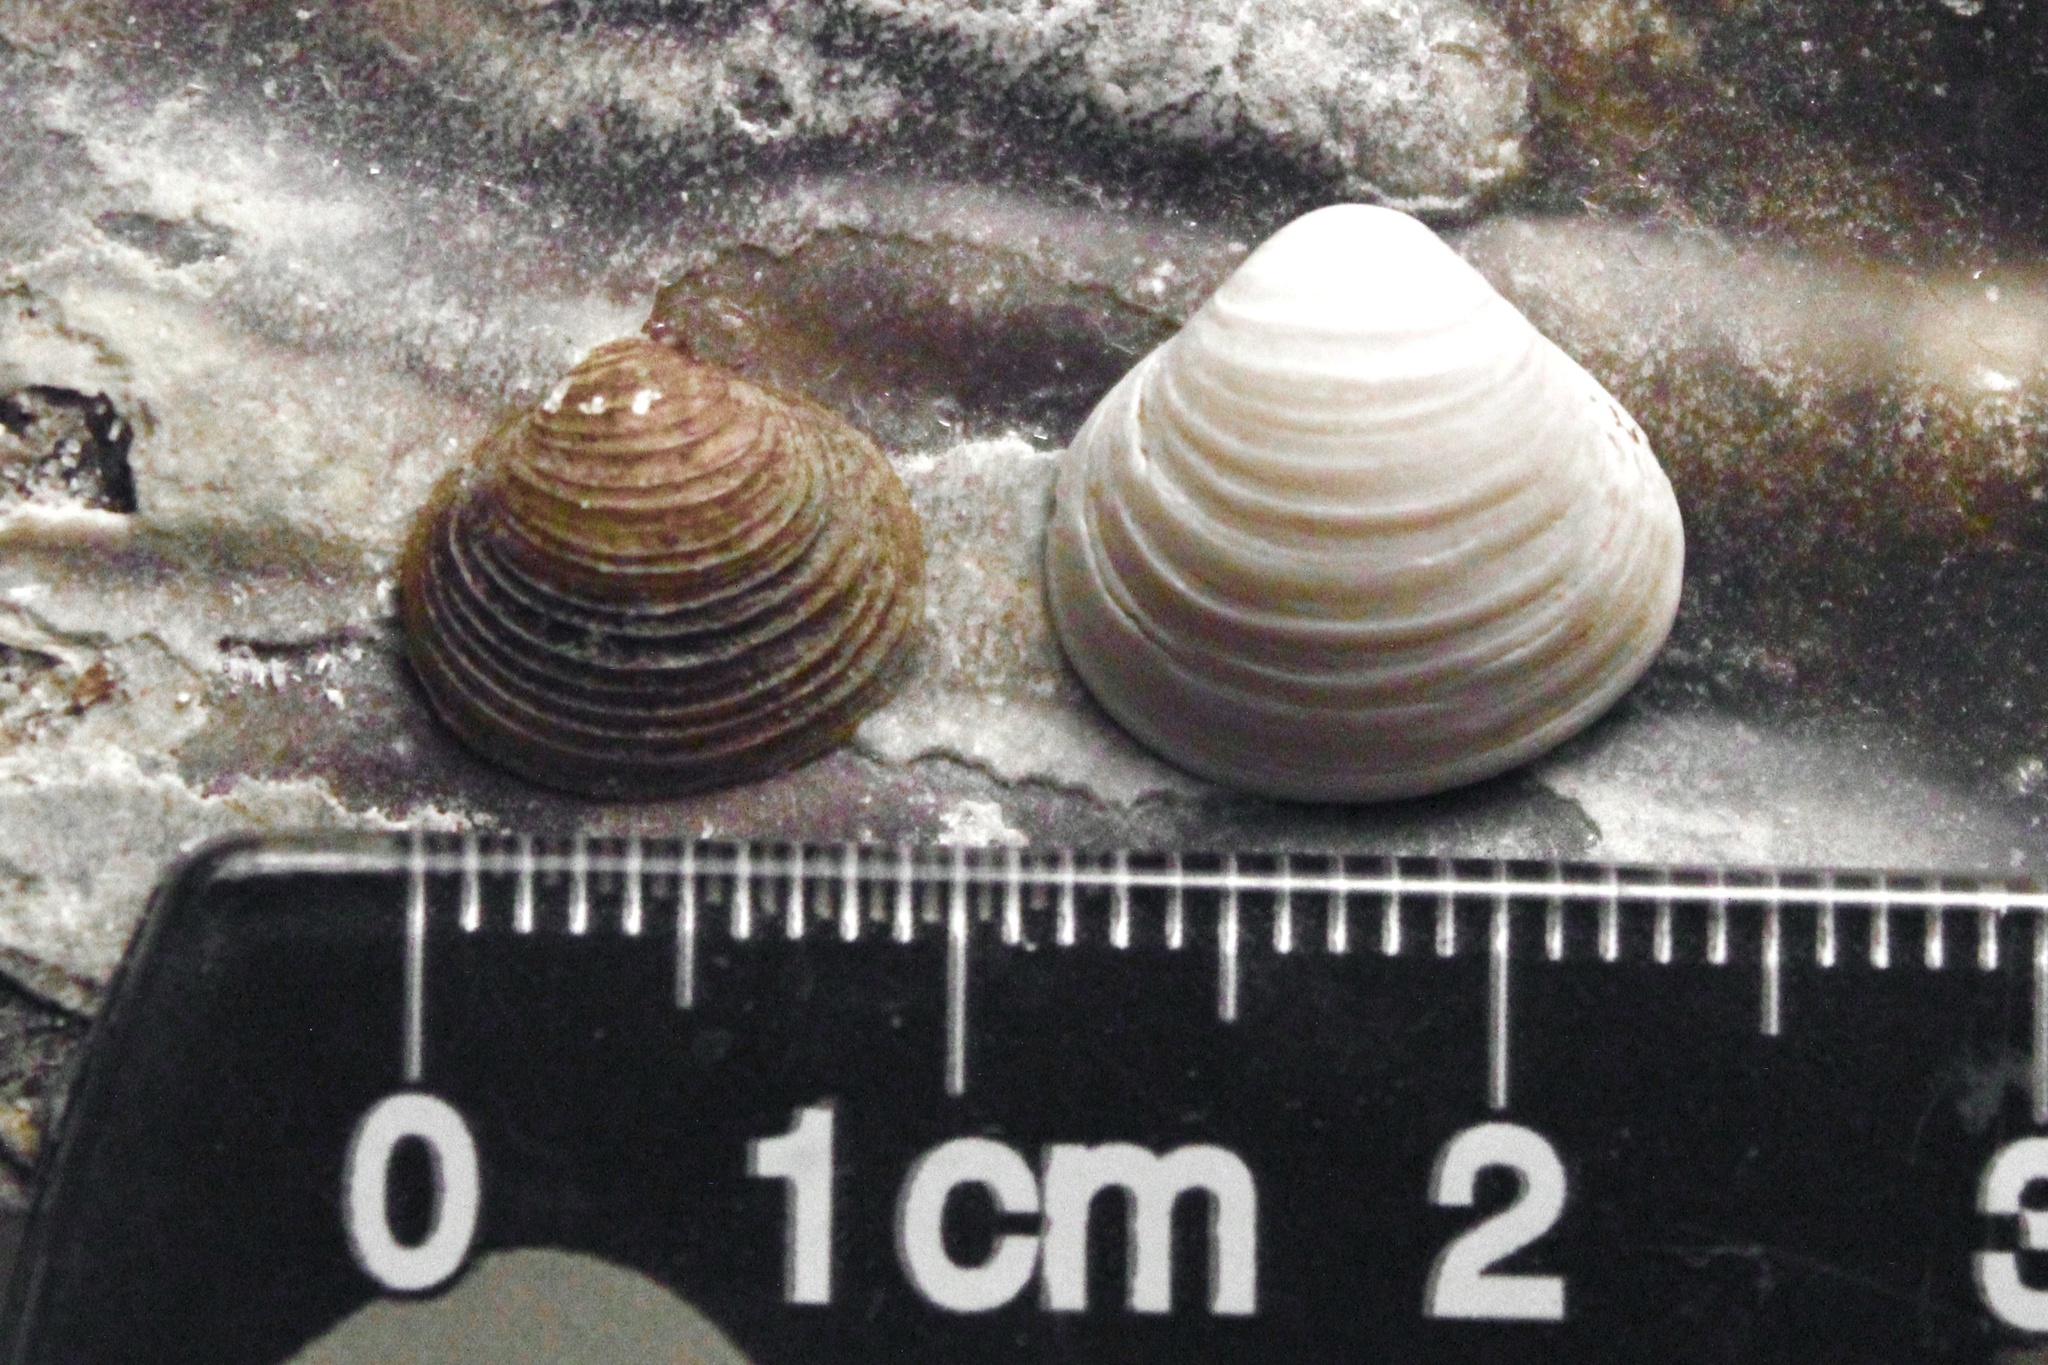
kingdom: Animalia
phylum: Mollusca
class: Bivalvia
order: Venerida
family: Cyrenidae
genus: Corbicula
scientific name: Corbicula fluminea
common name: Asian clam
